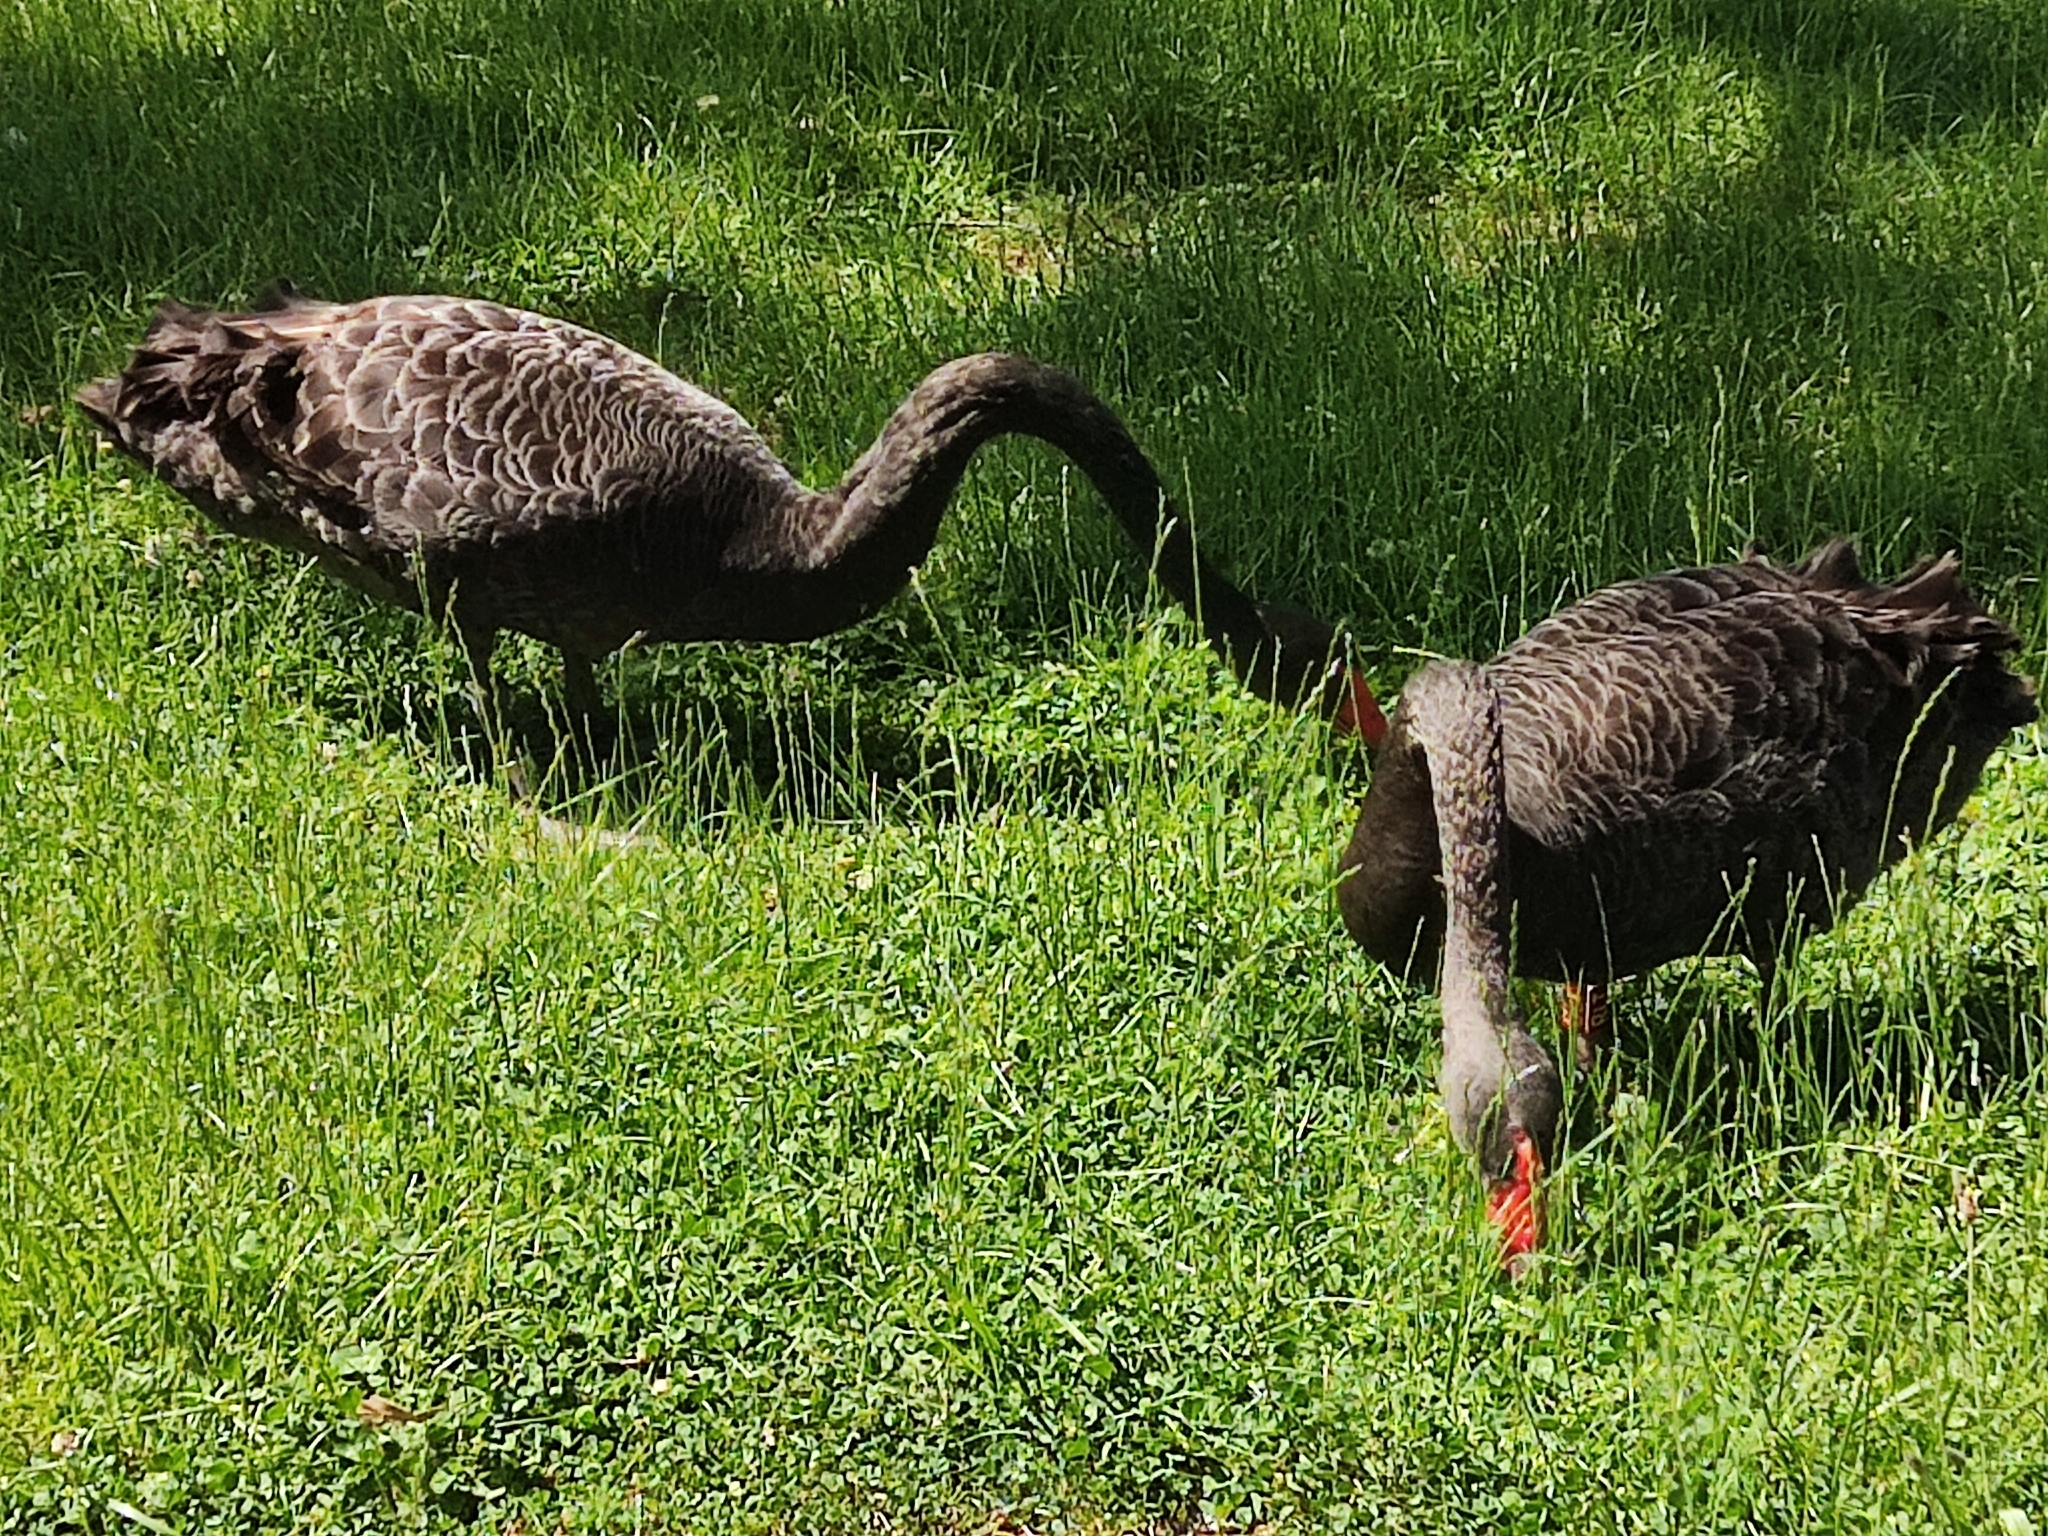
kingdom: Animalia
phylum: Chordata
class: Aves
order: Anseriformes
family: Anatidae
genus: Cygnus
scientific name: Cygnus atratus
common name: Black swan
